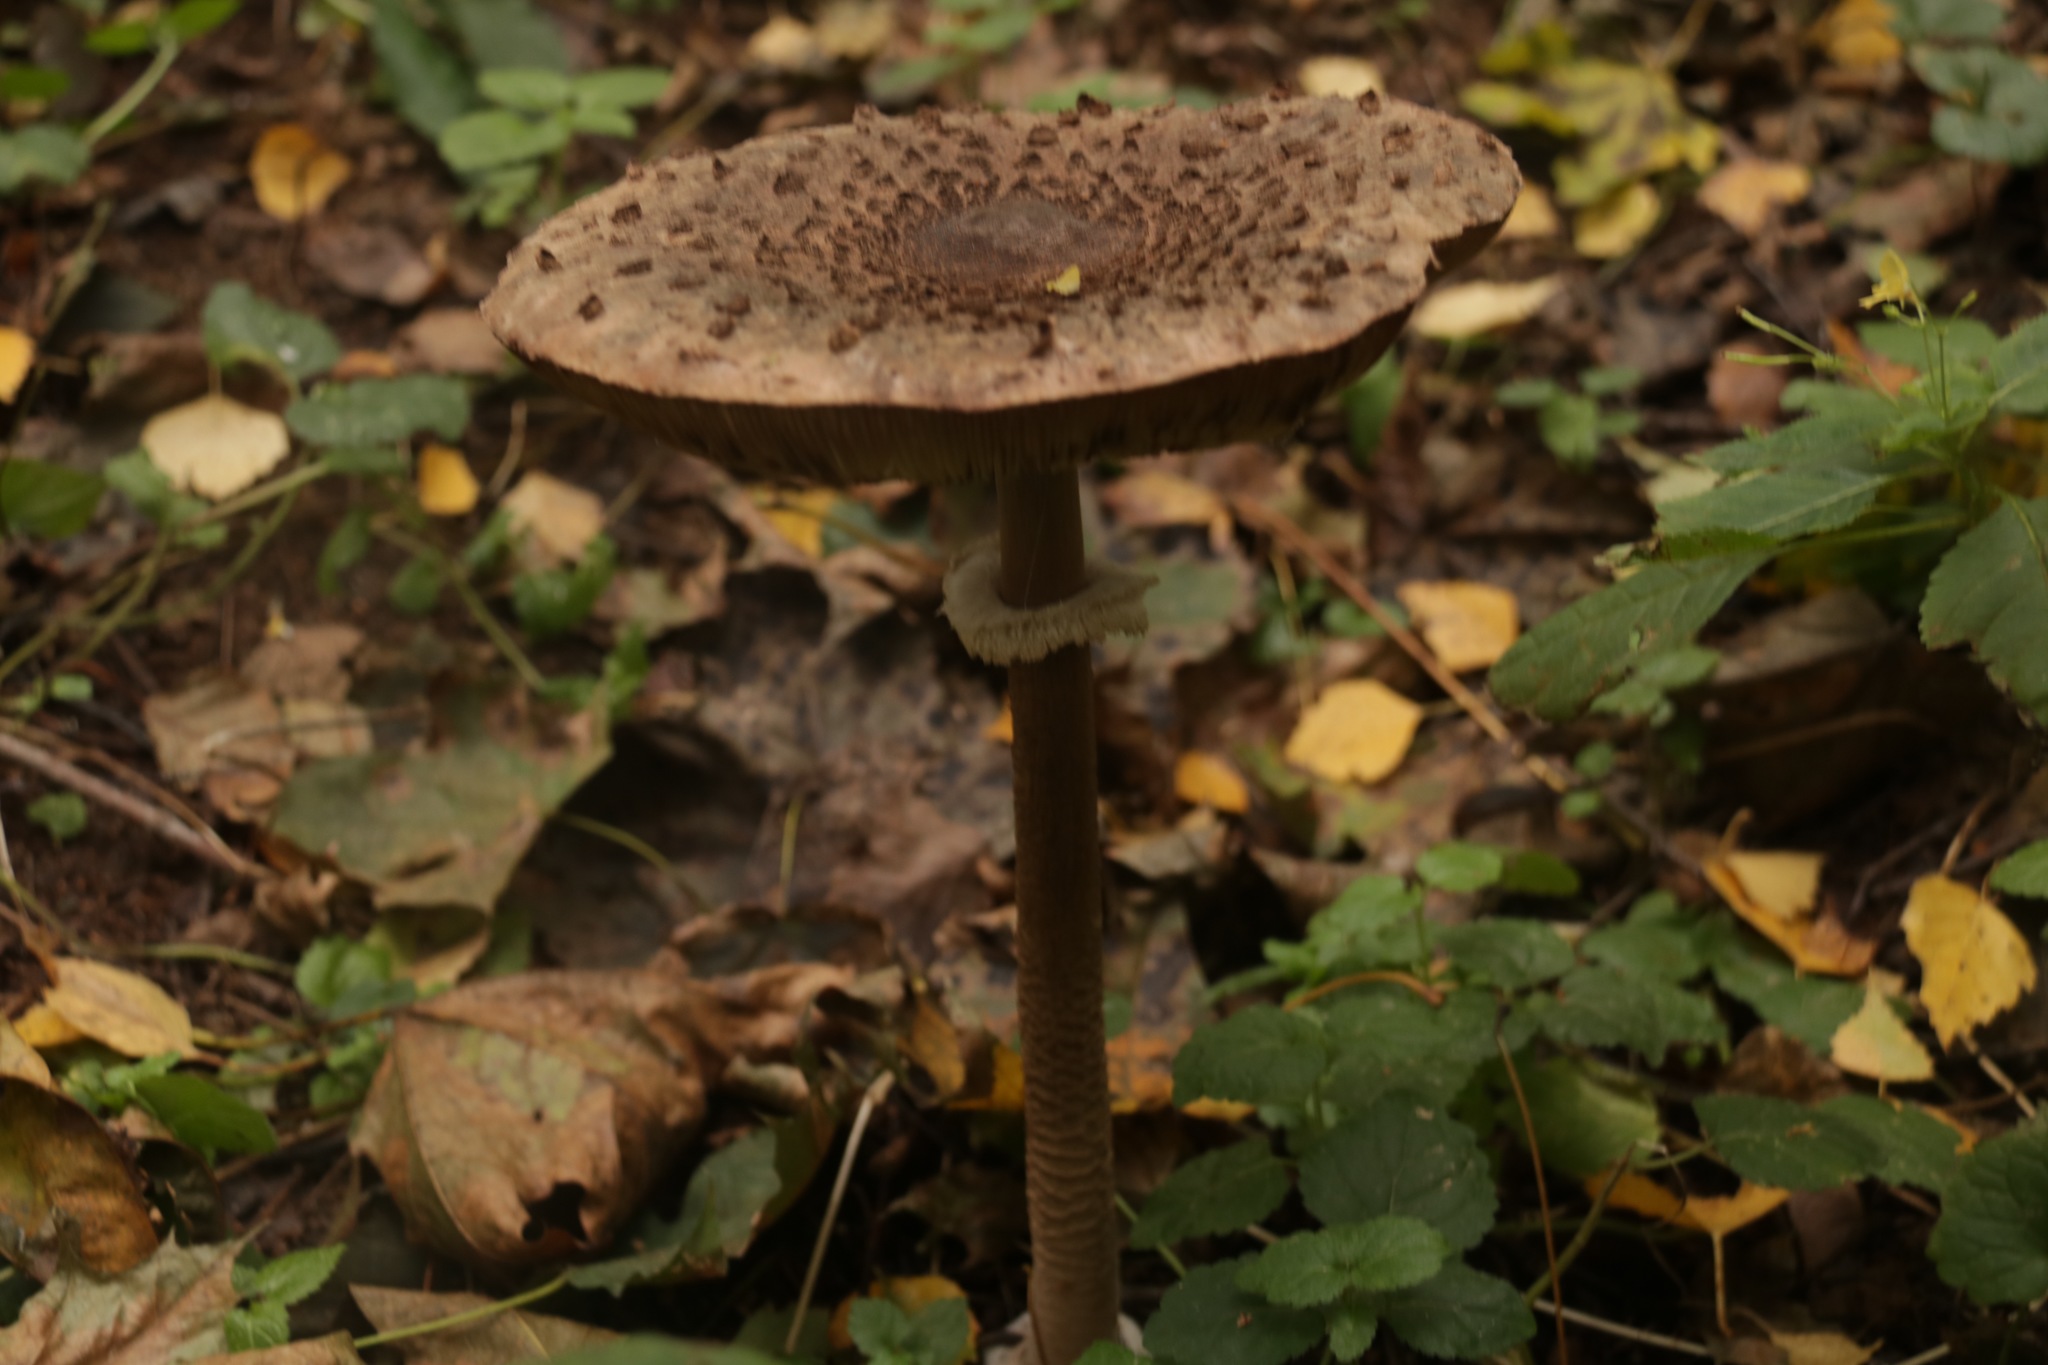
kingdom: Fungi
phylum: Basidiomycota
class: Agaricomycetes
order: Agaricales
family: Agaricaceae
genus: Macrolepiota
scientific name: Macrolepiota procera
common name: Parasol
